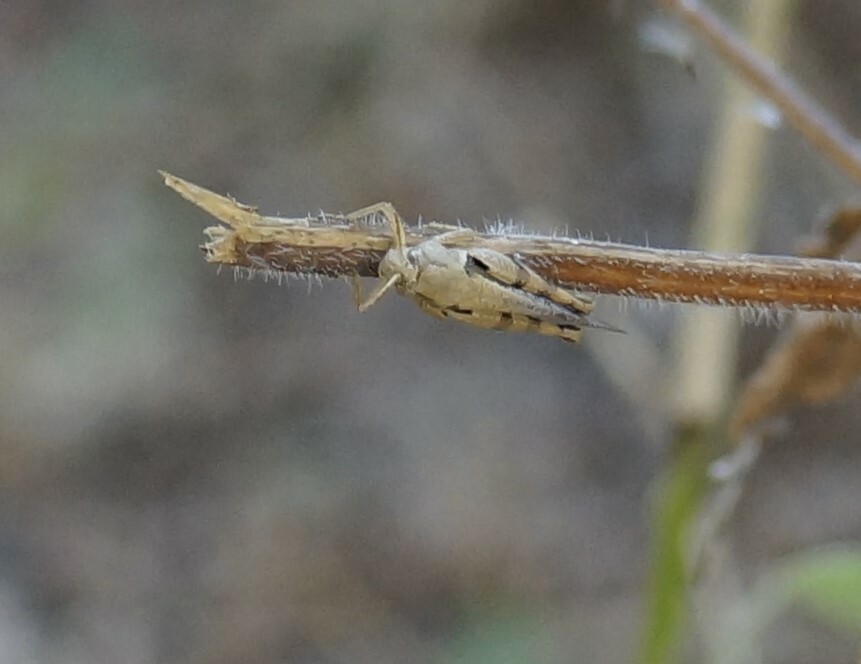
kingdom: Animalia
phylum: Arthropoda
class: Insecta
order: Orthoptera
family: Acrididae
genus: Stenocatantops
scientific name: Stenocatantops angustifrons
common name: Common tropical sharptail
